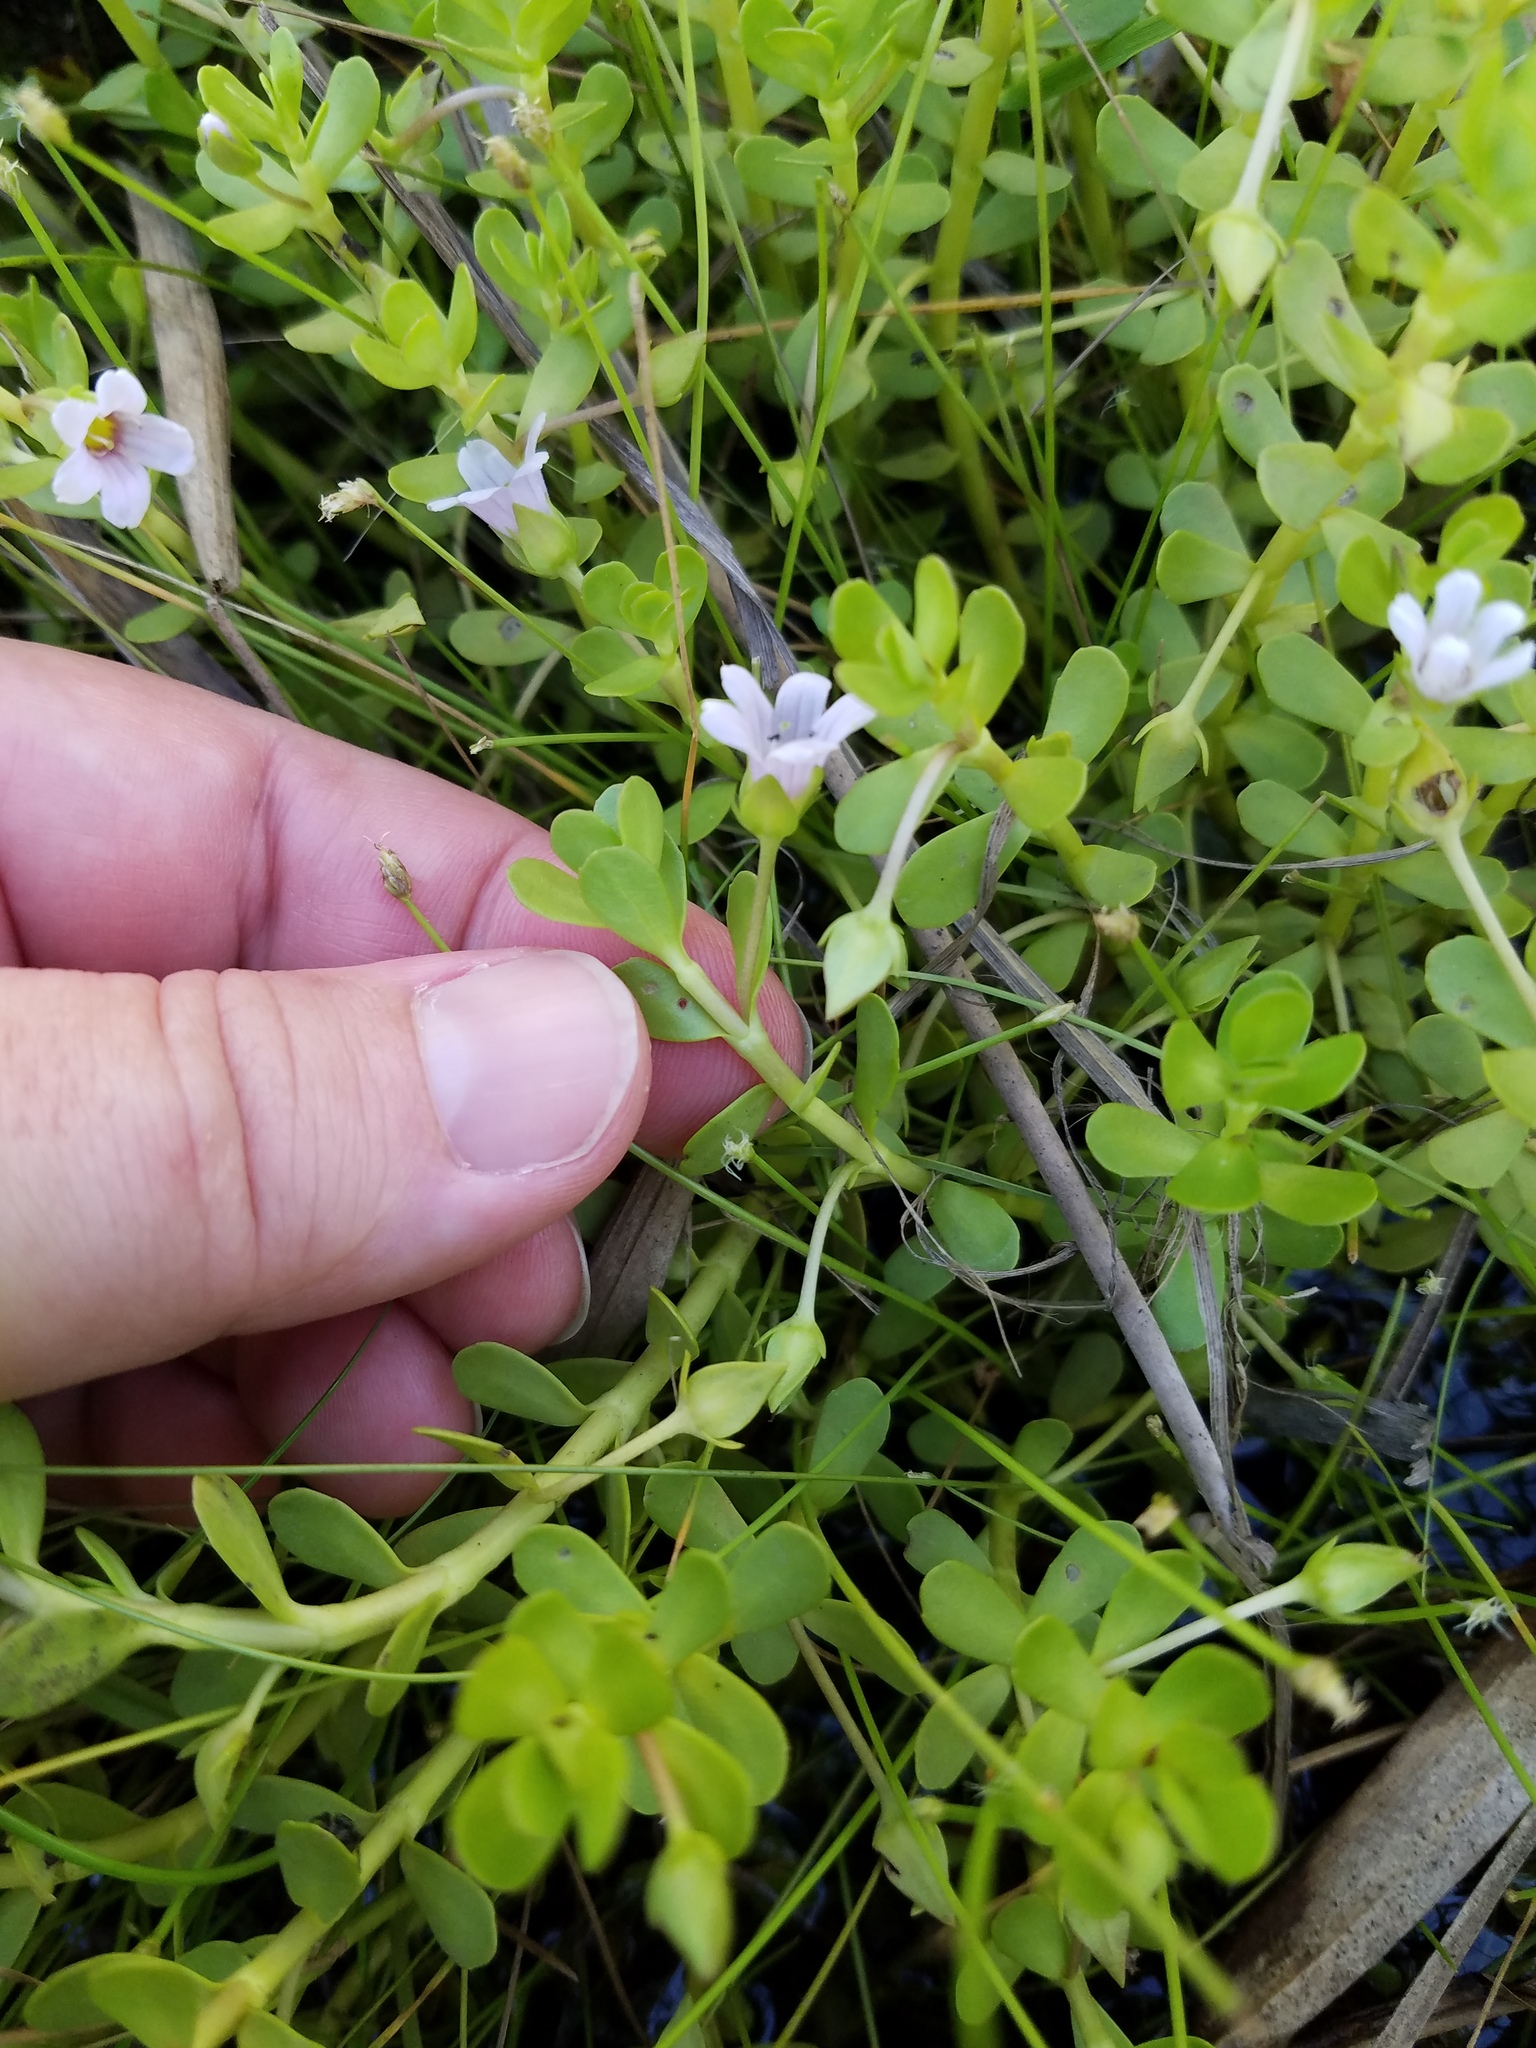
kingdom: Plantae
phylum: Tracheophyta
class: Magnoliopsida
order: Lamiales
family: Plantaginaceae
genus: Bacopa
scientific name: Bacopa monnieri
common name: Indian-pennywort
